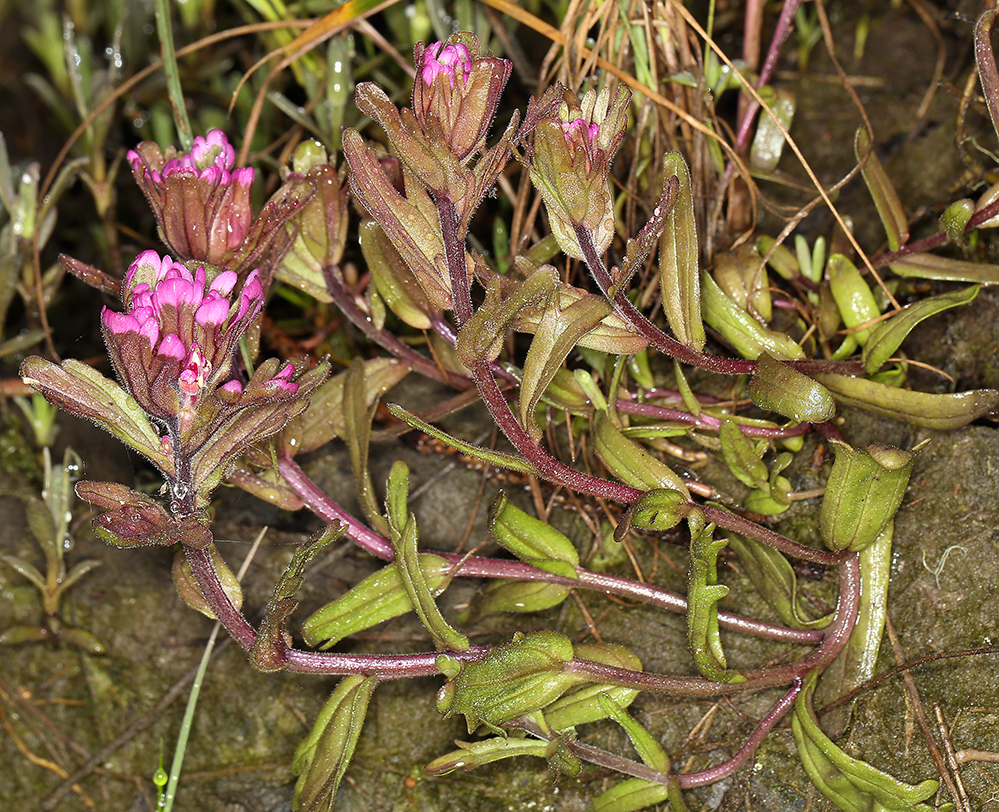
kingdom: Plantae
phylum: Tracheophyta
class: Magnoliopsida
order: Lamiales
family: Orobanchaceae
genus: Castilleja
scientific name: Castilleja ambigua
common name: Johnny-nip
